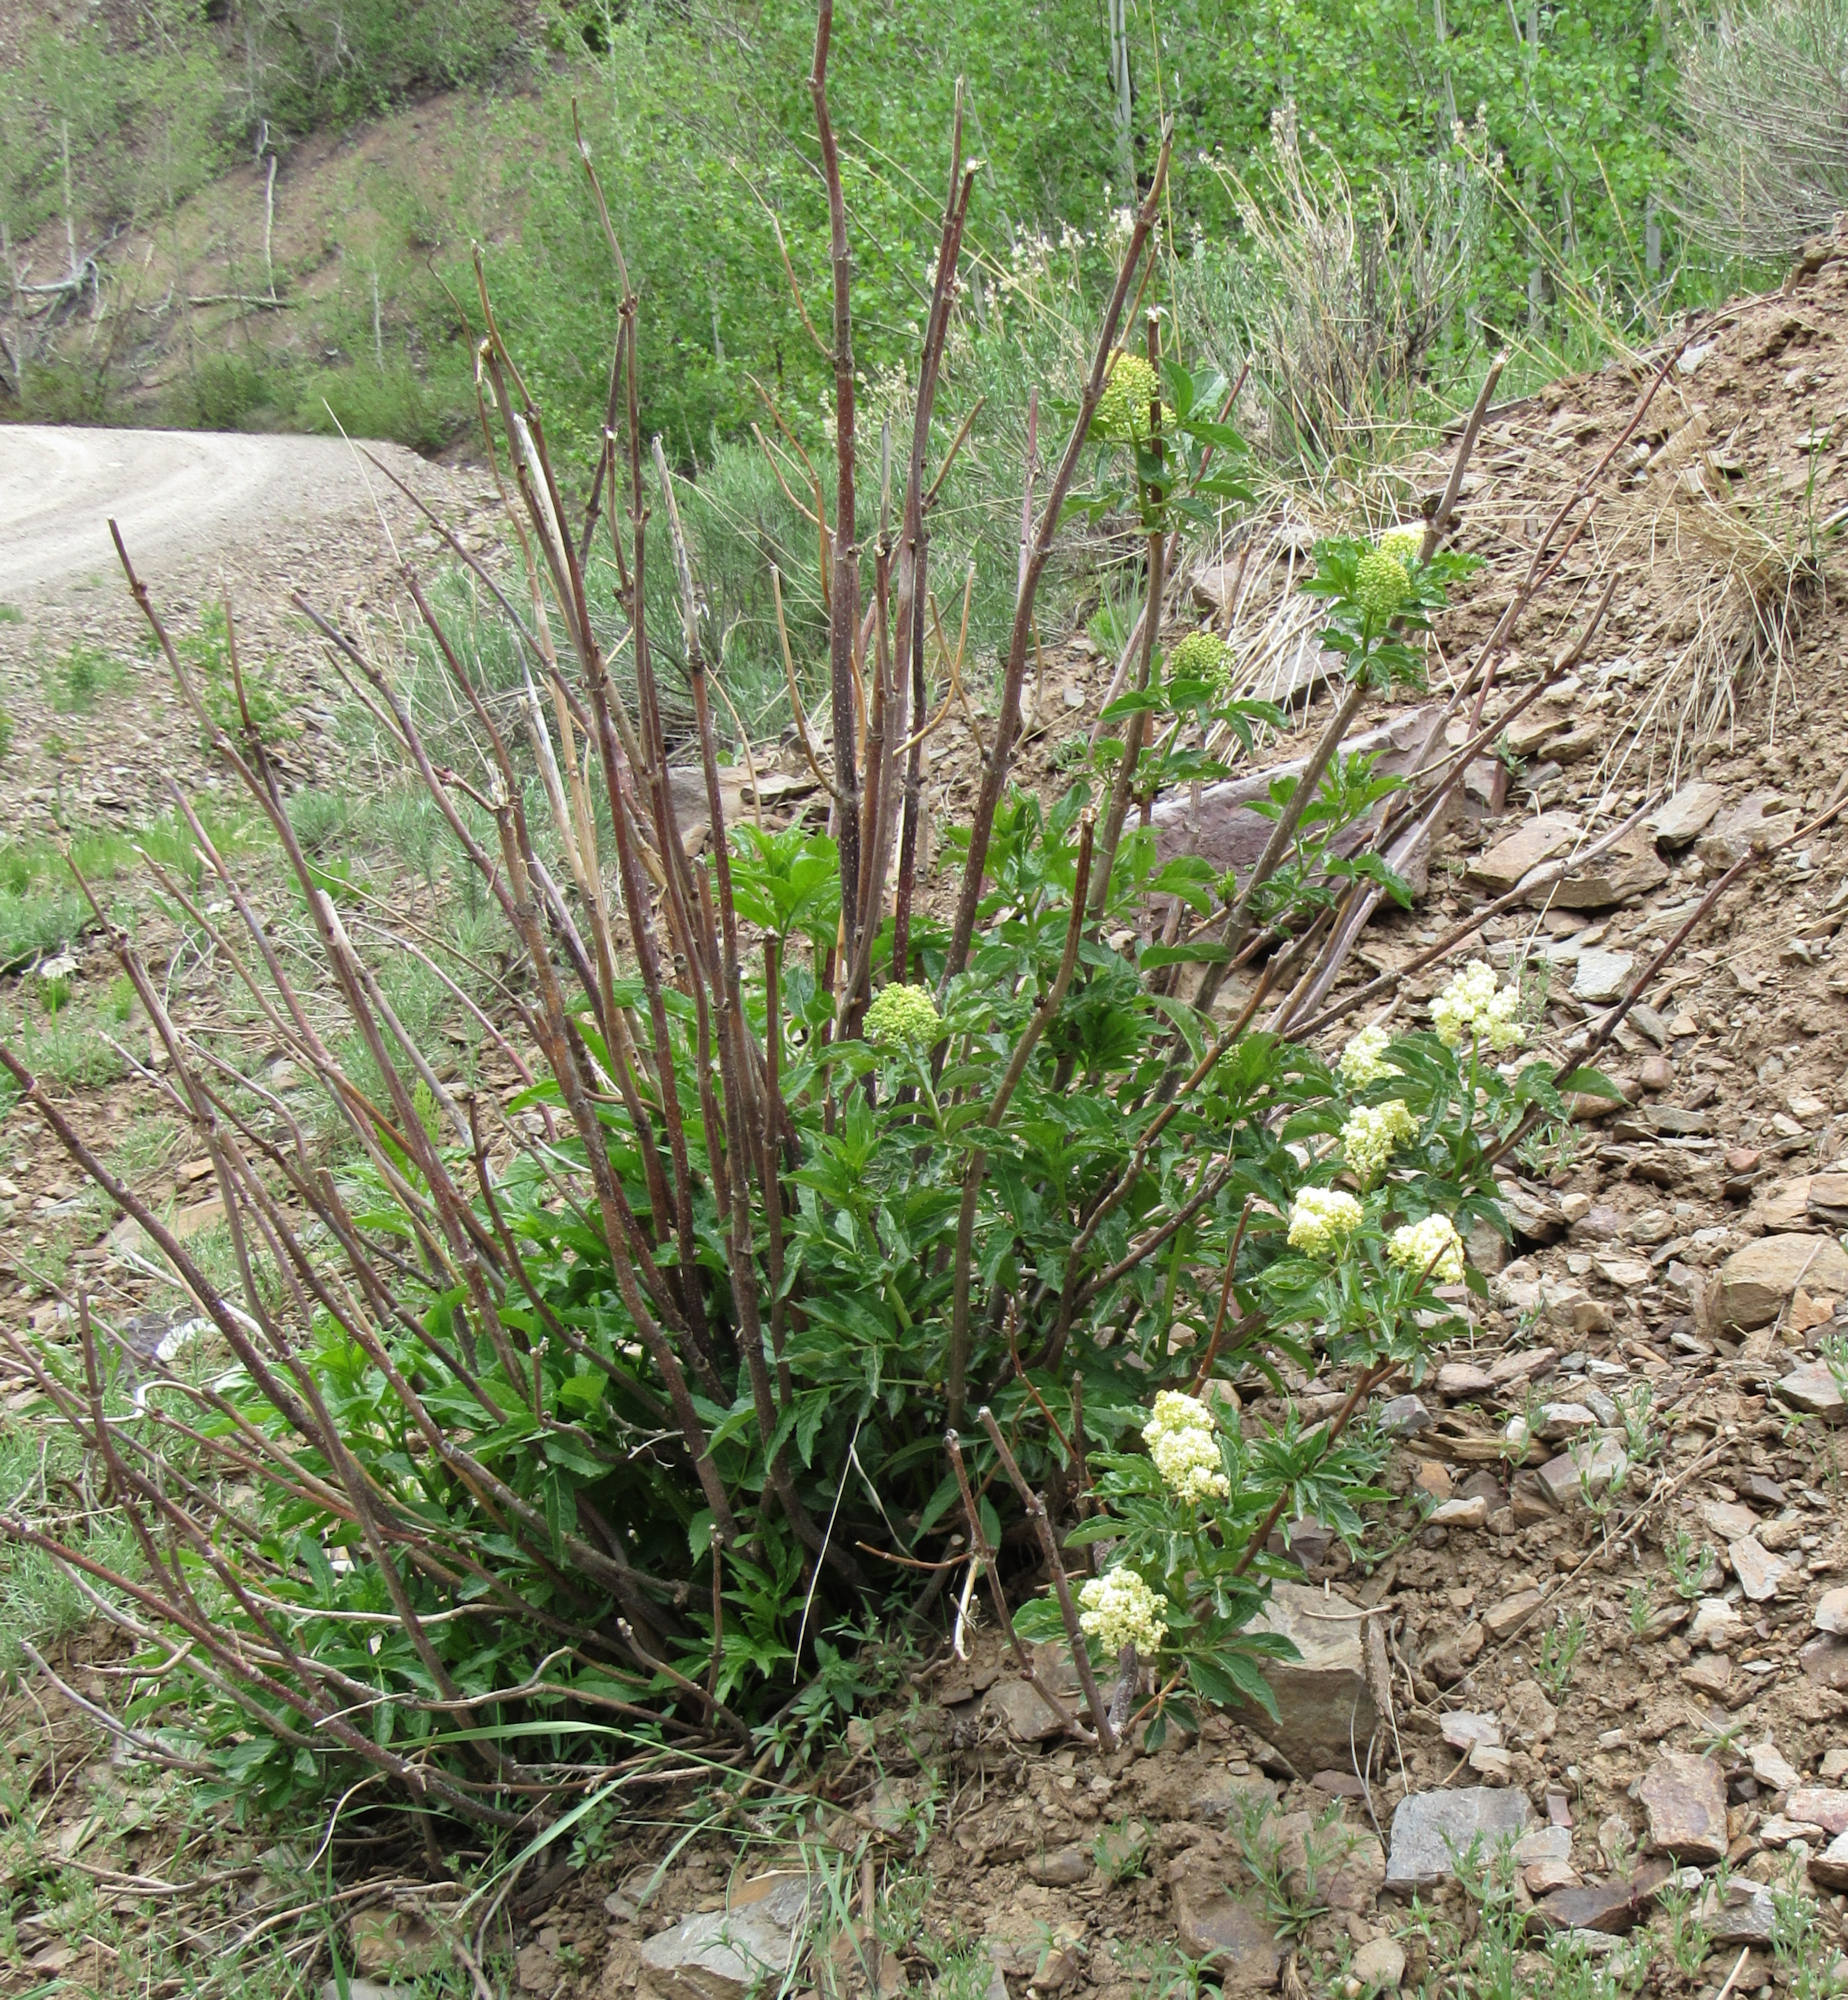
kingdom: Plantae
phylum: Tracheophyta
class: Magnoliopsida
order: Dipsacales
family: Viburnaceae
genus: Sambucus
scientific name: Sambucus racemosa
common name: Red-berried elder
